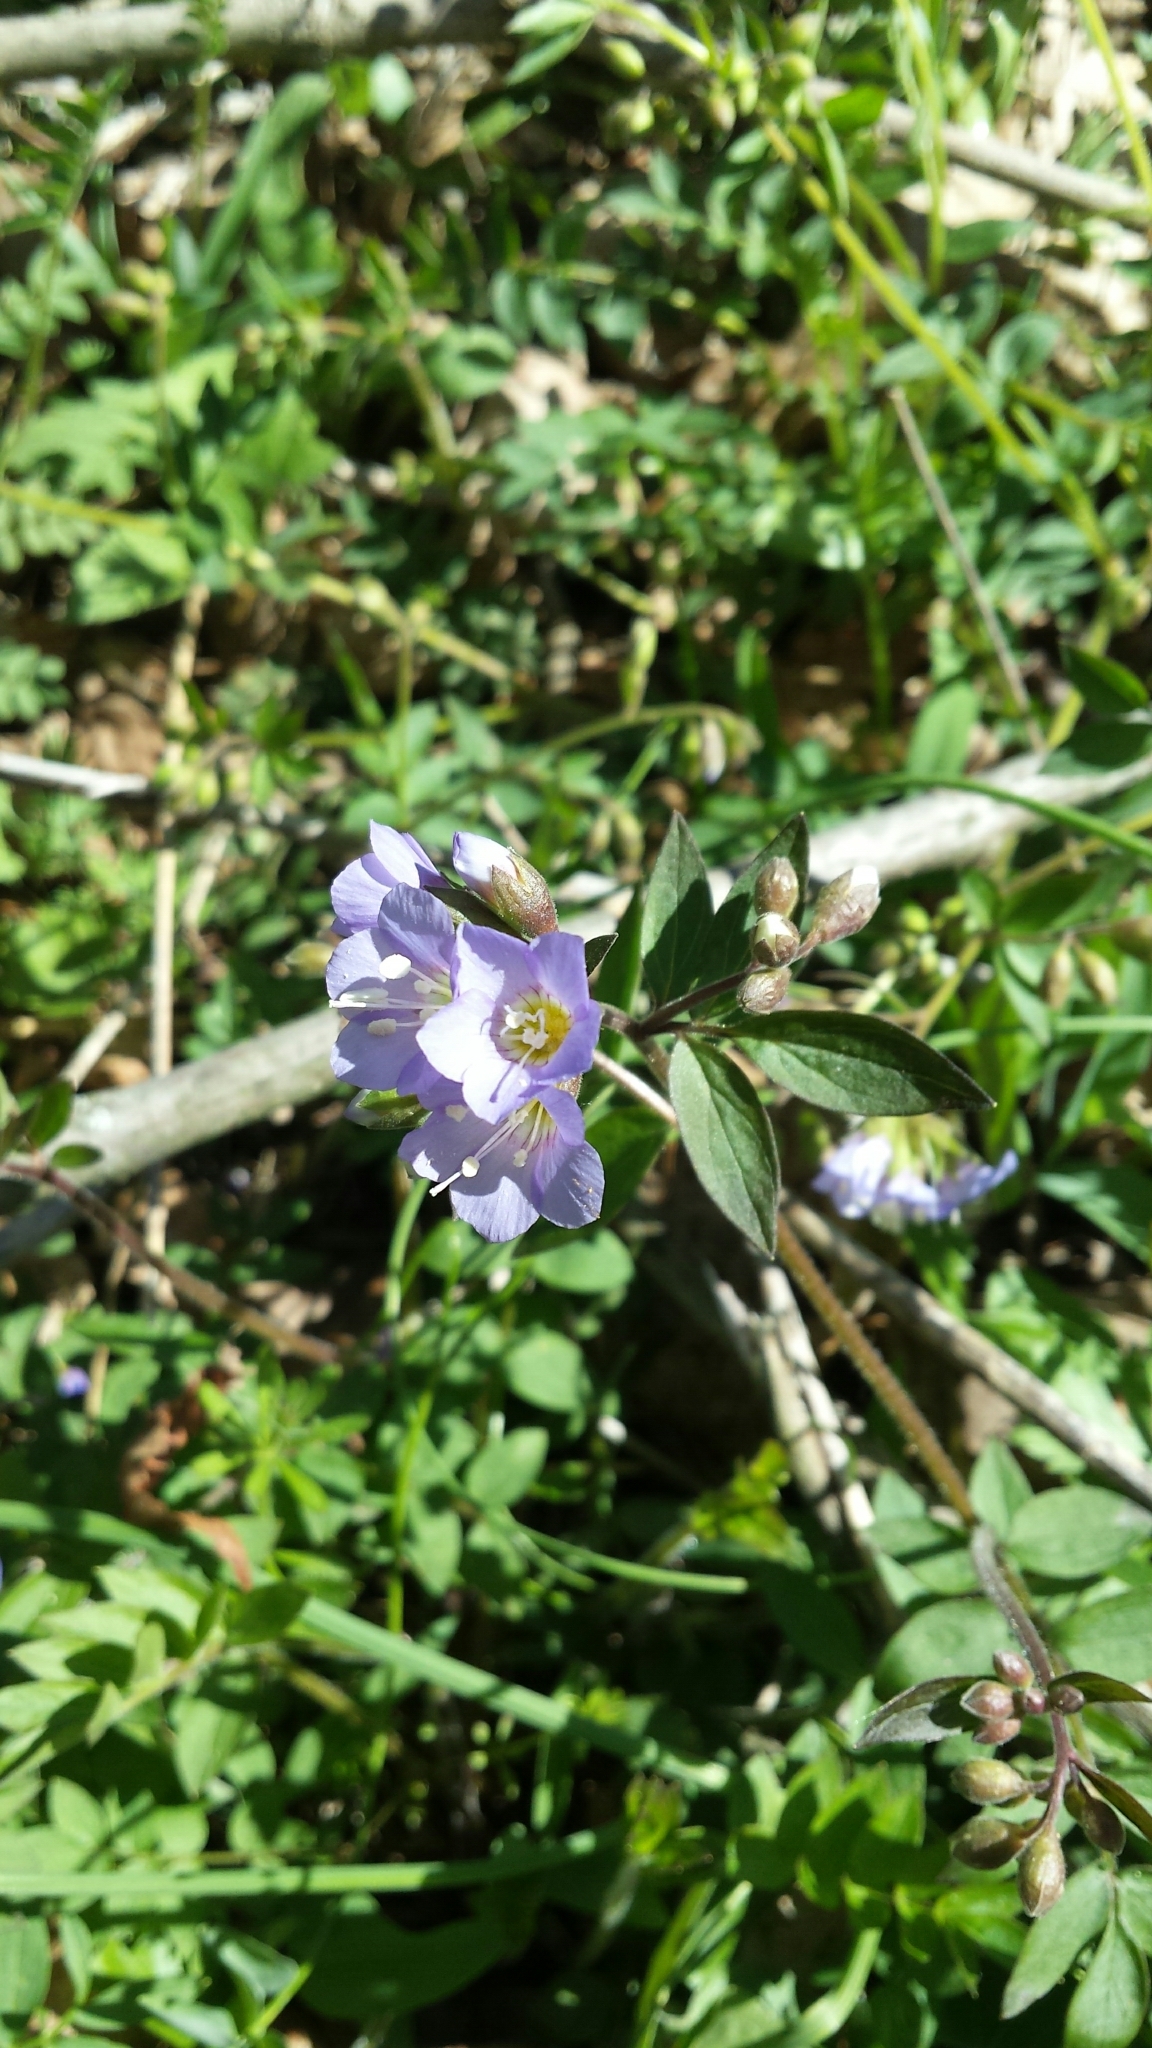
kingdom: Plantae
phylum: Tracheophyta
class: Magnoliopsida
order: Ericales
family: Polemoniaceae
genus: Polemonium
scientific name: Polemonium reptans
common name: Creeping jacob's-ladder
